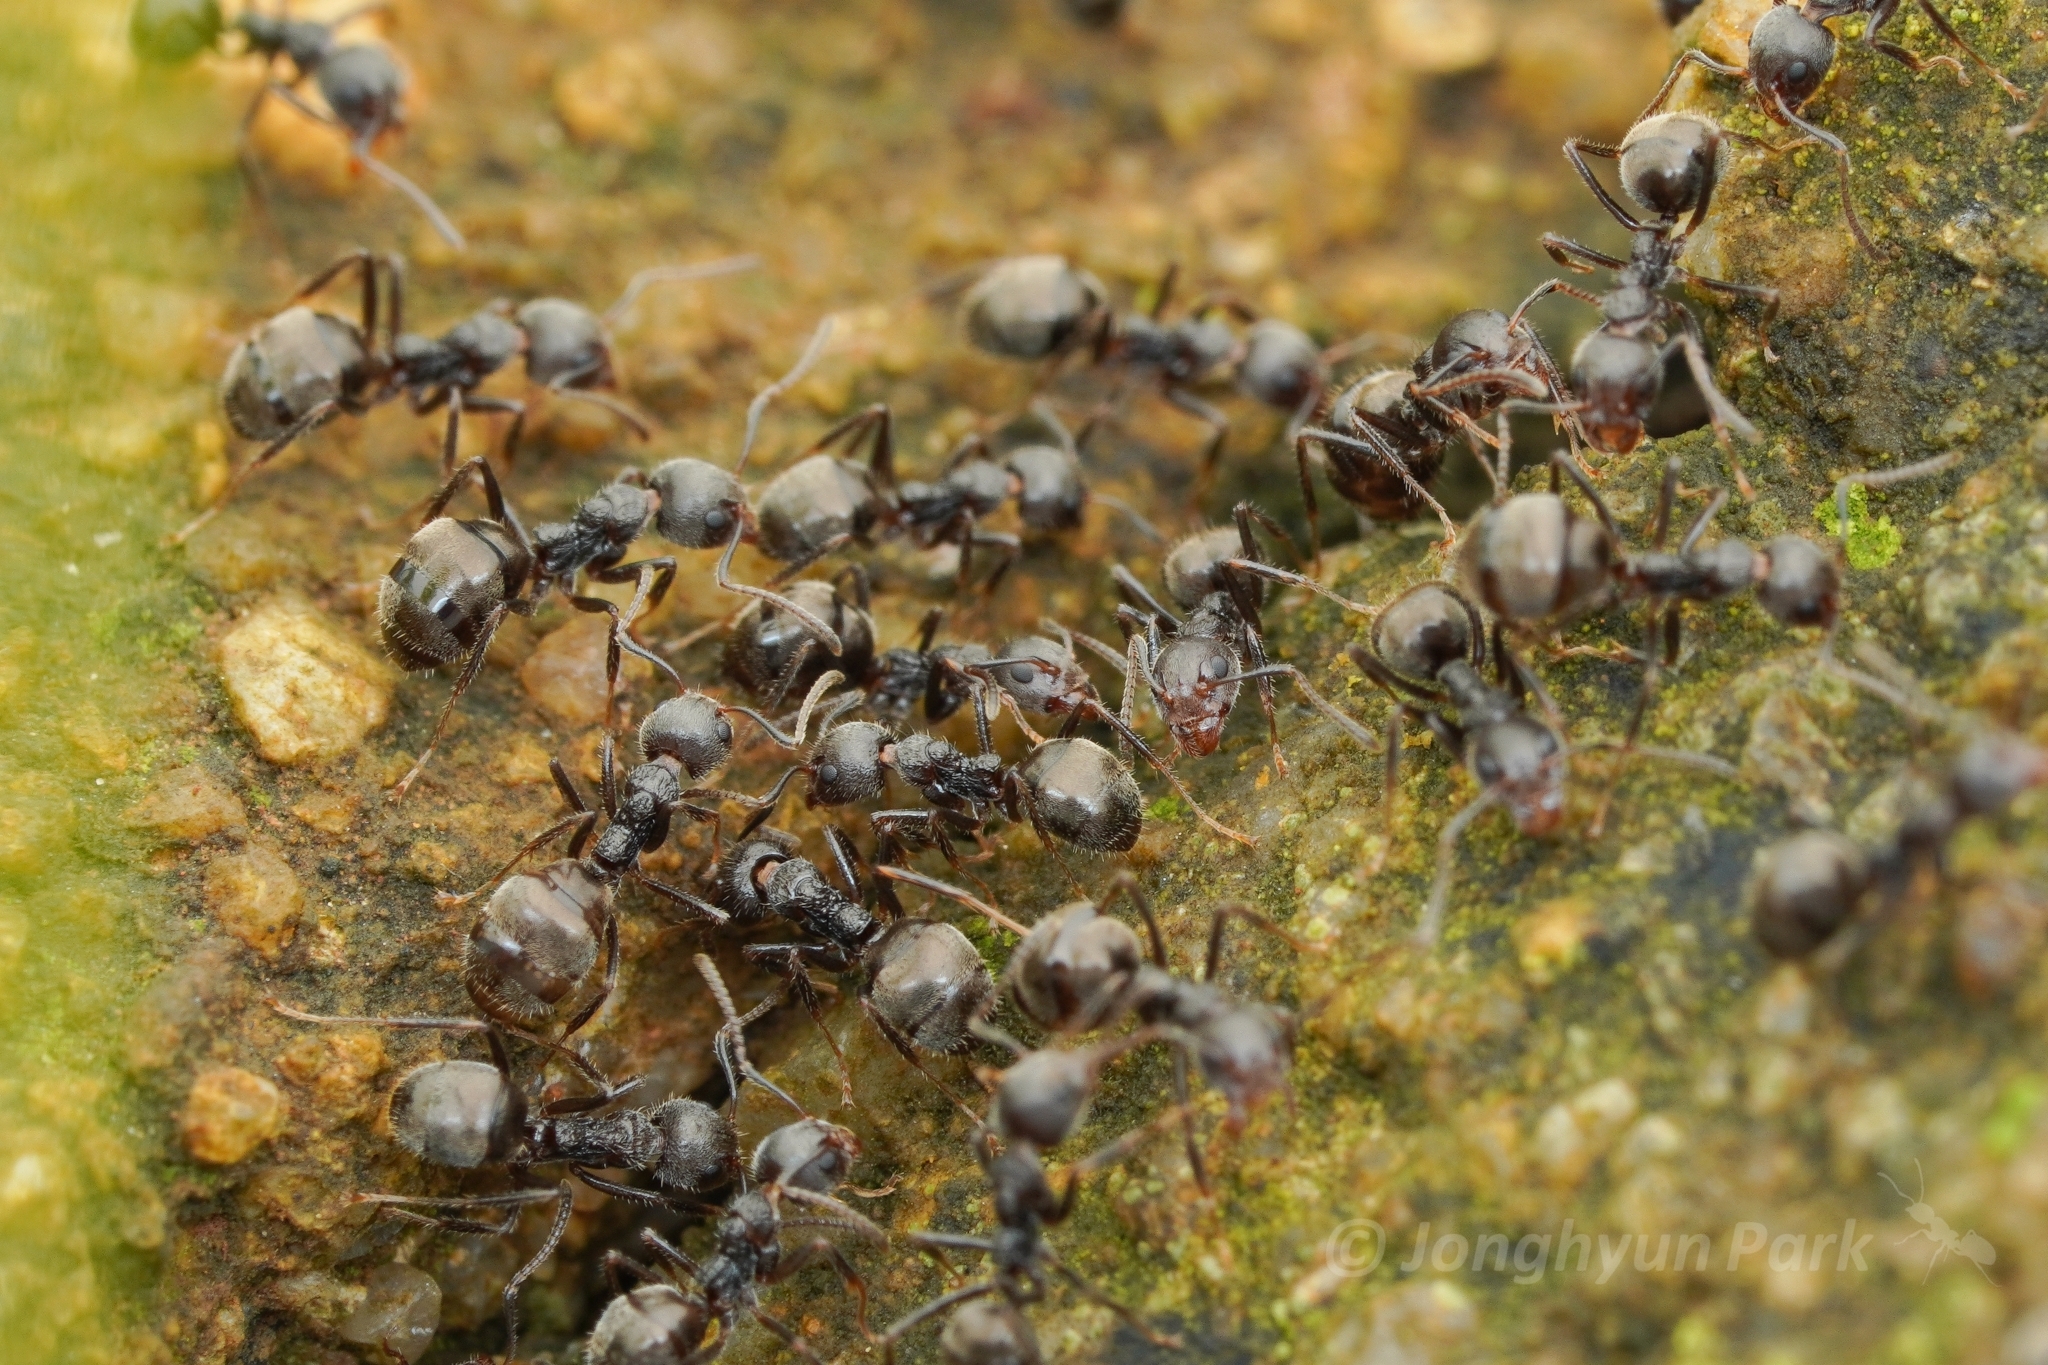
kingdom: Animalia
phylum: Arthropoda
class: Insecta
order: Hymenoptera
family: Formicidae
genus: Dolichoderus
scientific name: Dolichoderus thoracicus
